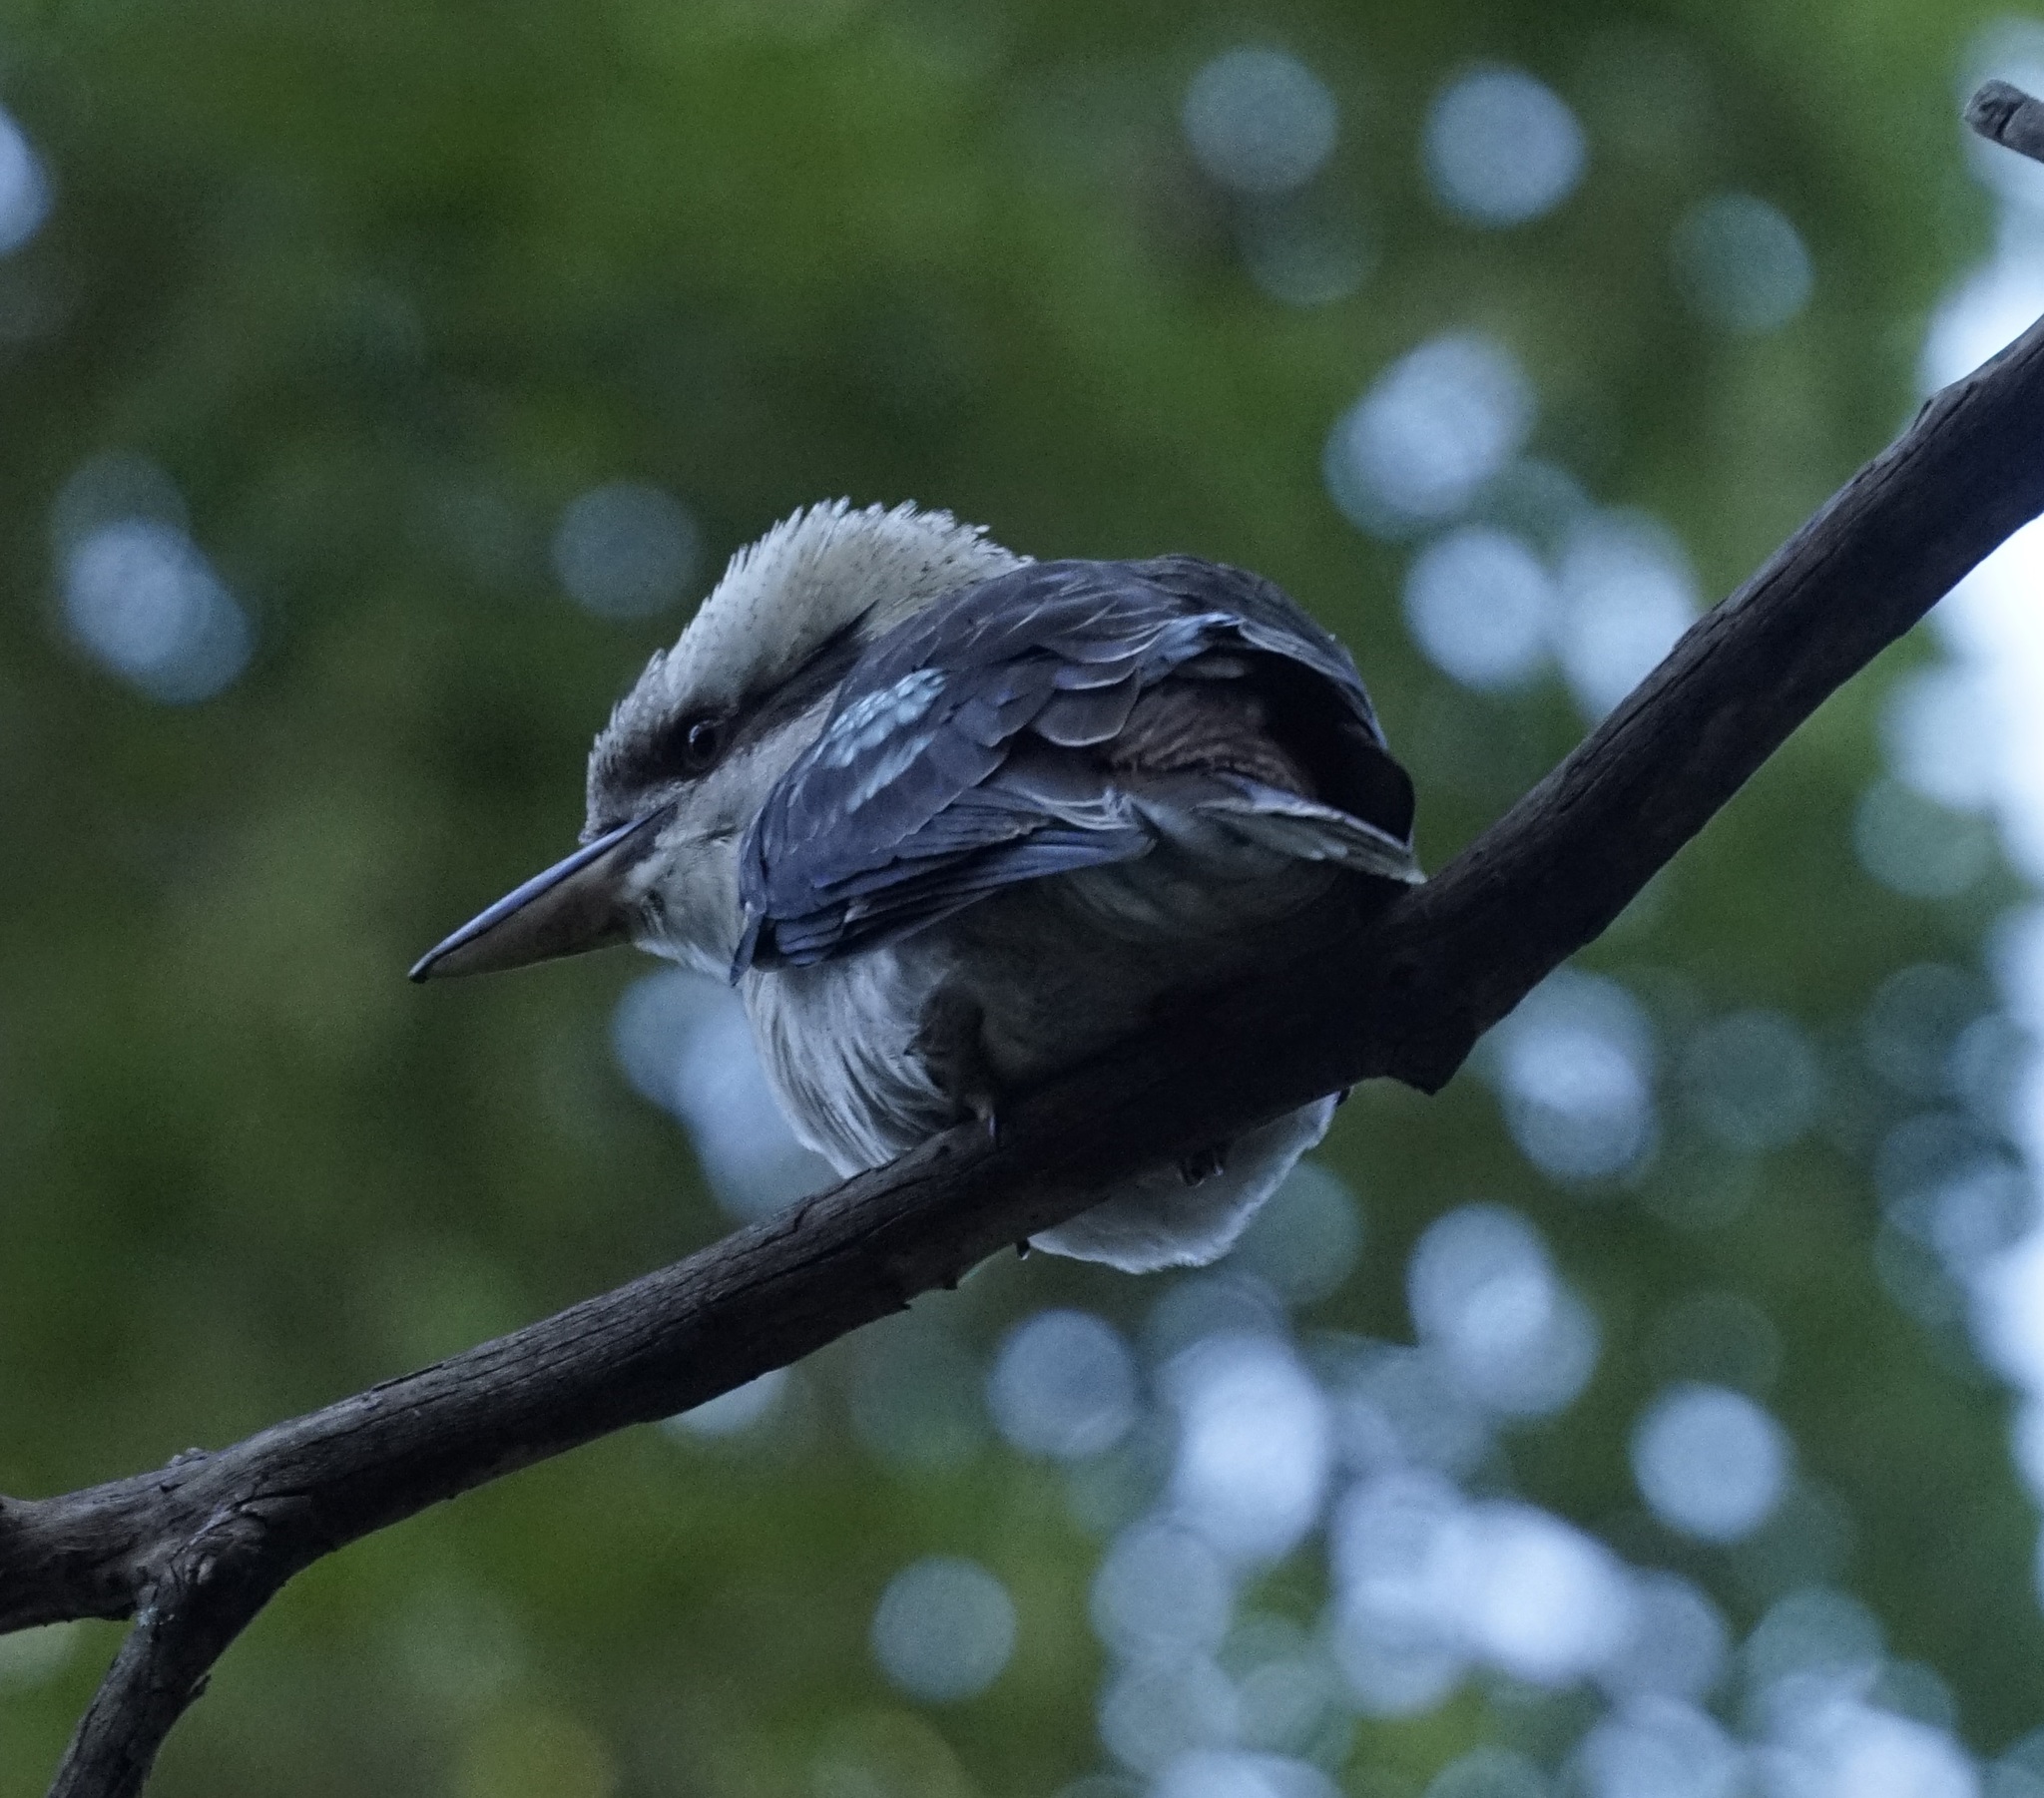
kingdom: Animalia
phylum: Chordata
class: Aves
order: Coraciiformes
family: Alcedinidae
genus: Dacelo
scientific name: Dacelo novaeguineae
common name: Laughing kookaburra
